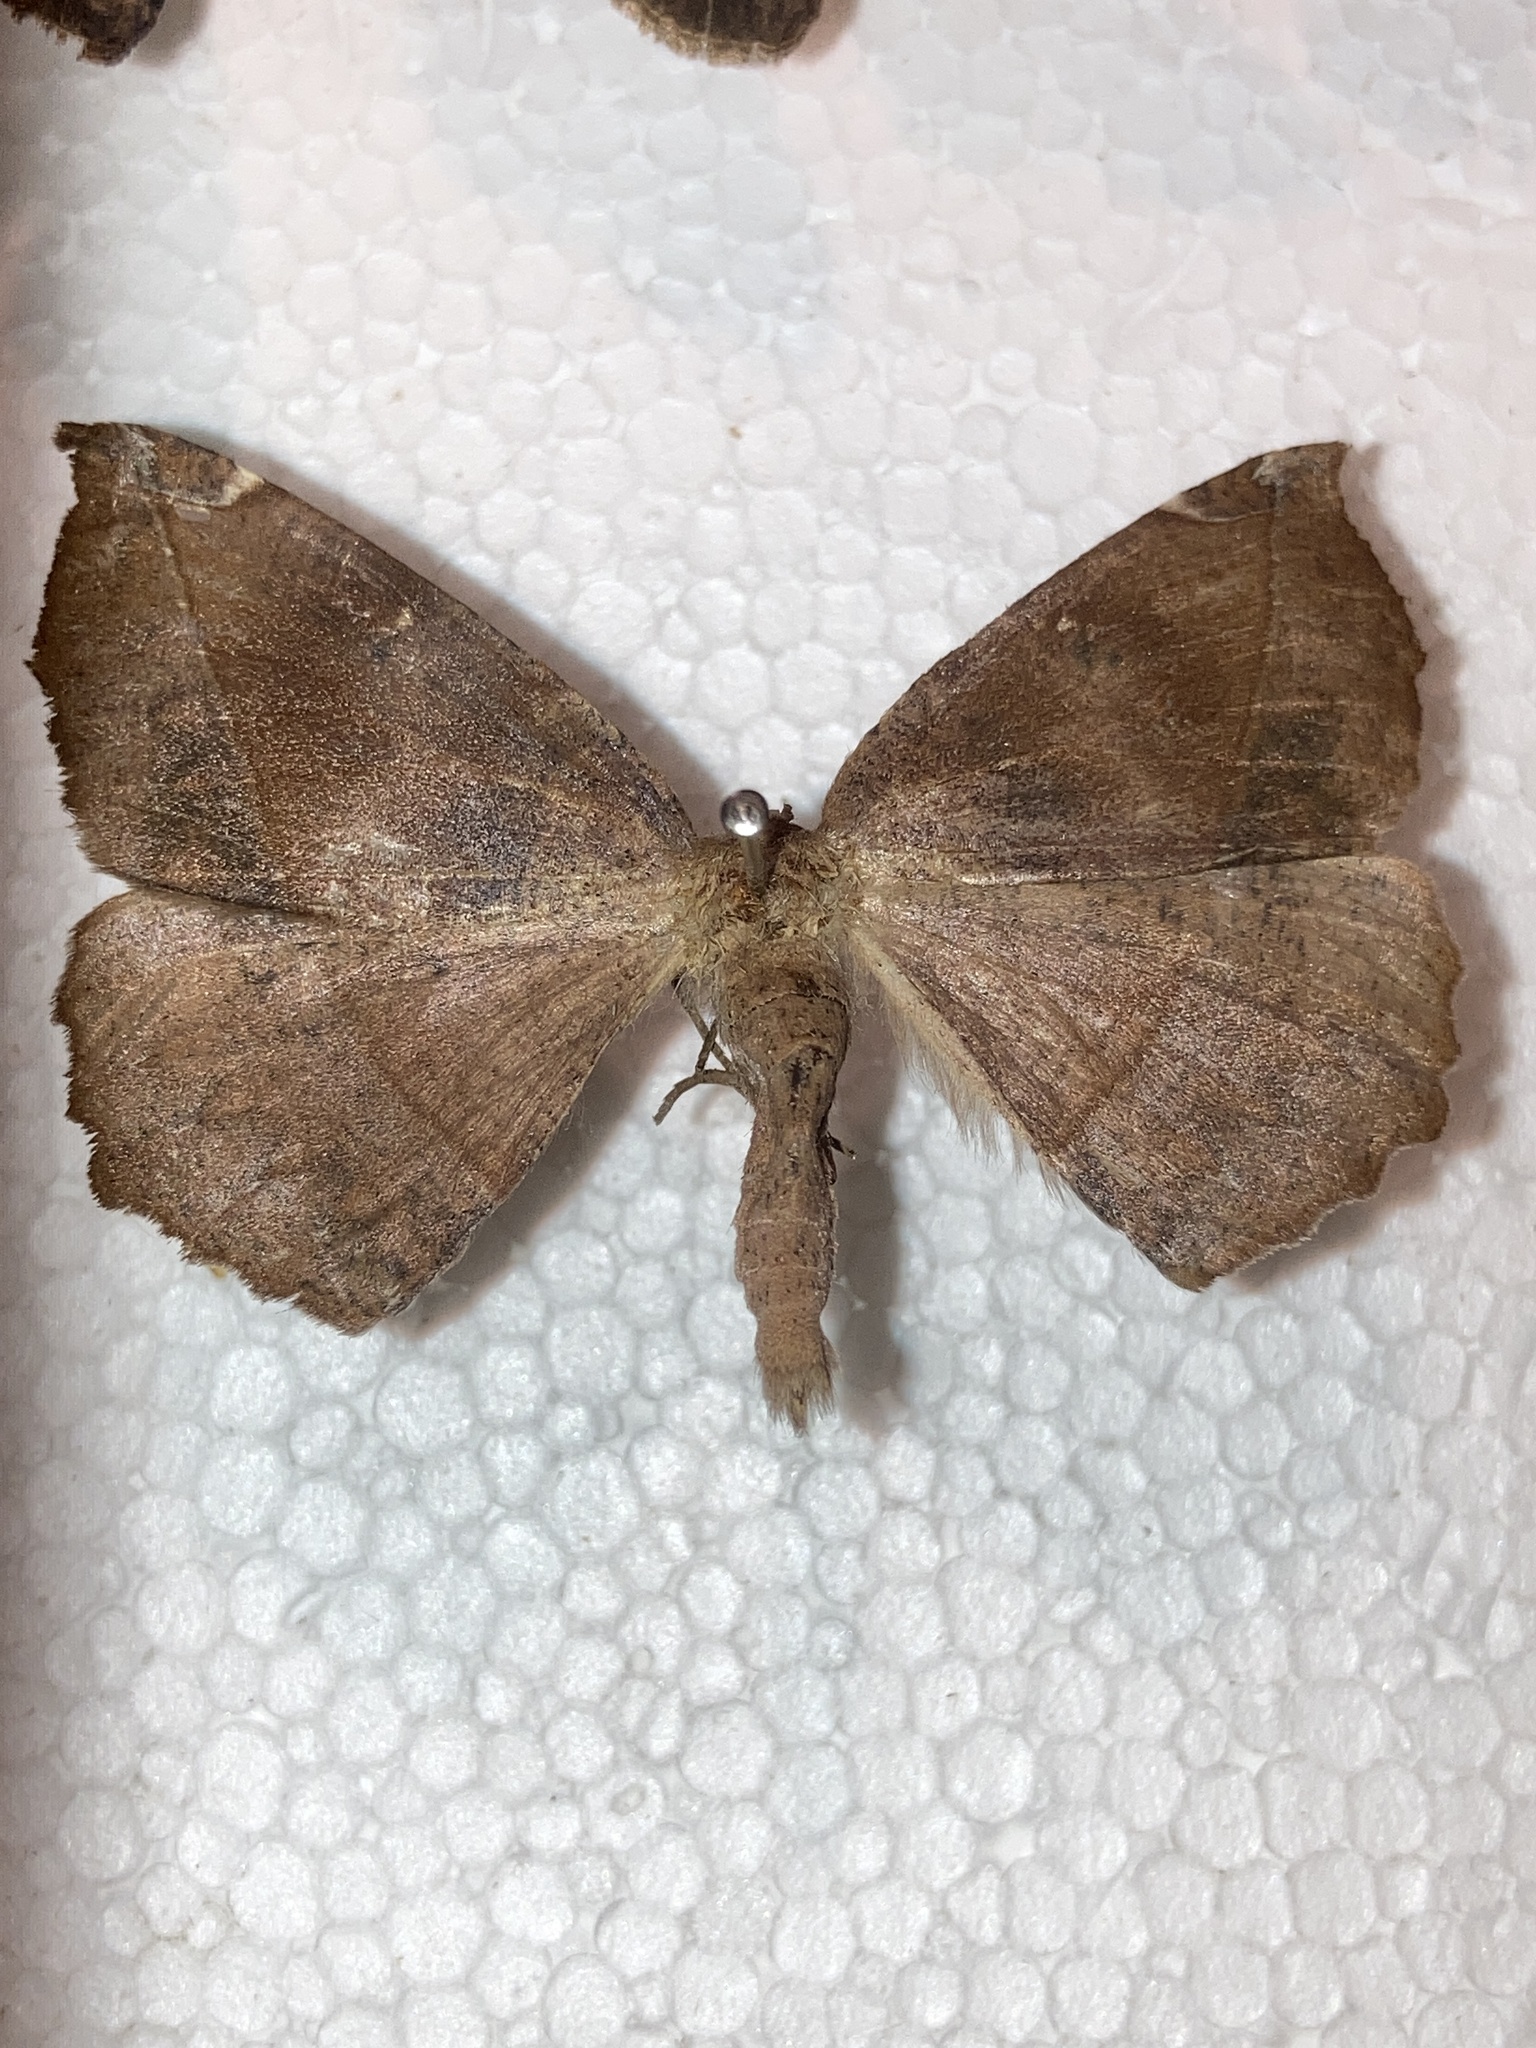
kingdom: Animalia
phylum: Arthropoda
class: Insecta
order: Lepidoptera
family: Geometridae
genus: Eutrapela
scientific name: Eutrapela clemataria
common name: Curved-toothed geometer
